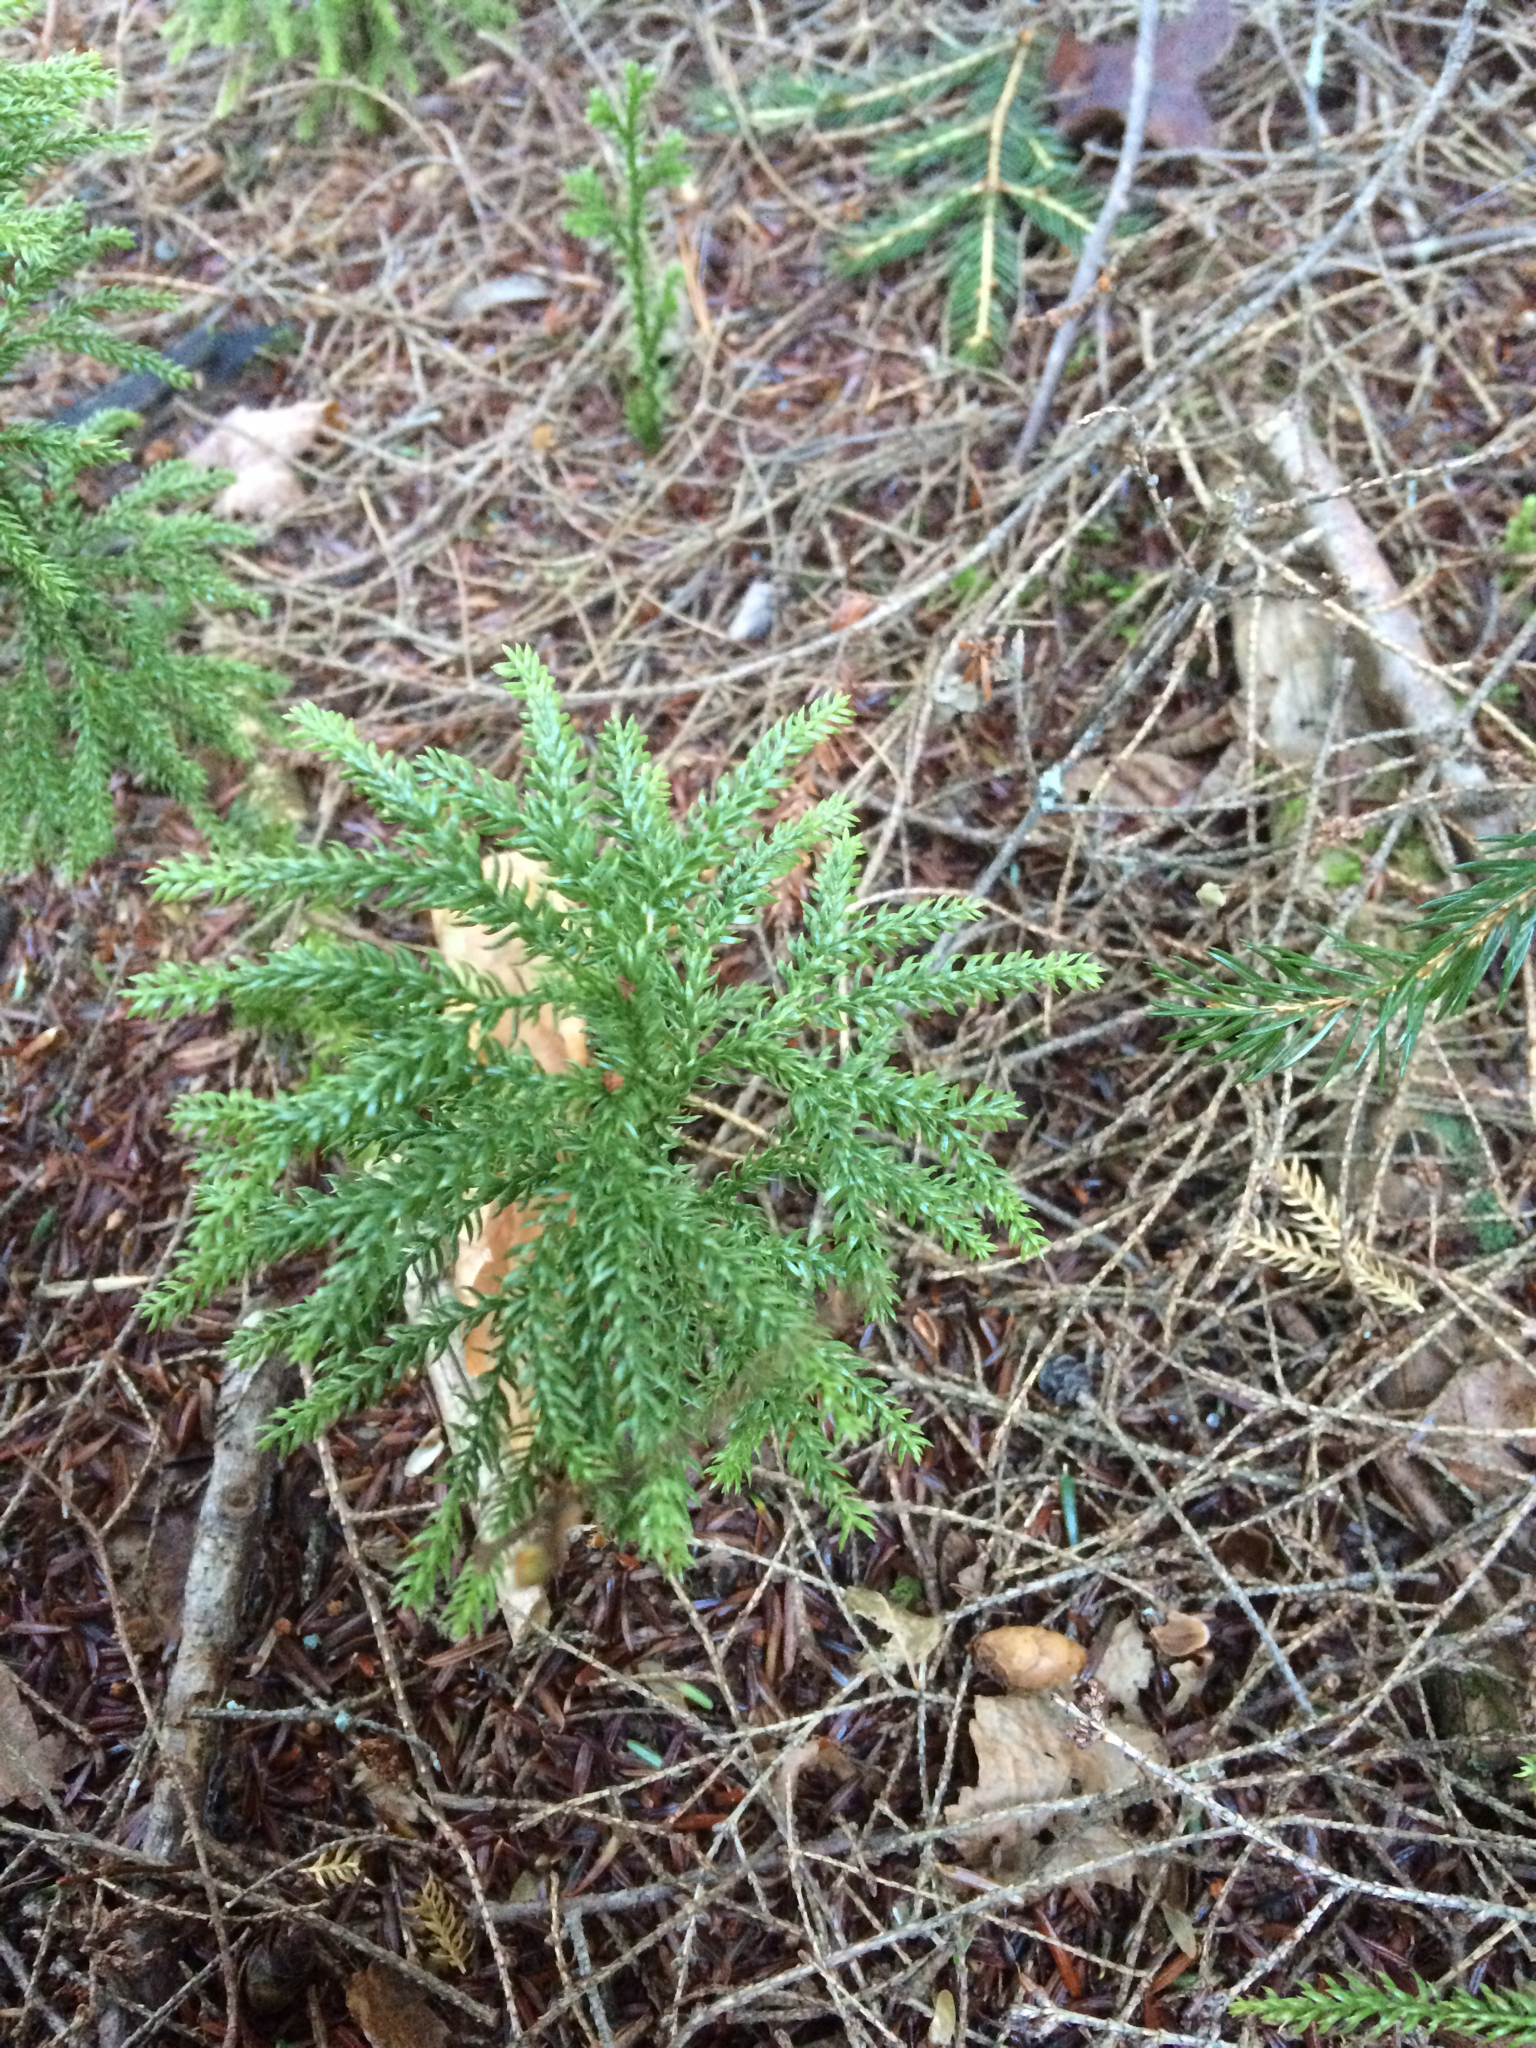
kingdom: Plantae
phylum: Tracheophyta
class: Lycopodiopsida
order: Lycopodiales
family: Lycopodiaceae
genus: Dendrolycopodium
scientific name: Dendrolycopodium dendroideum
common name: Northern tree-clubmoss
